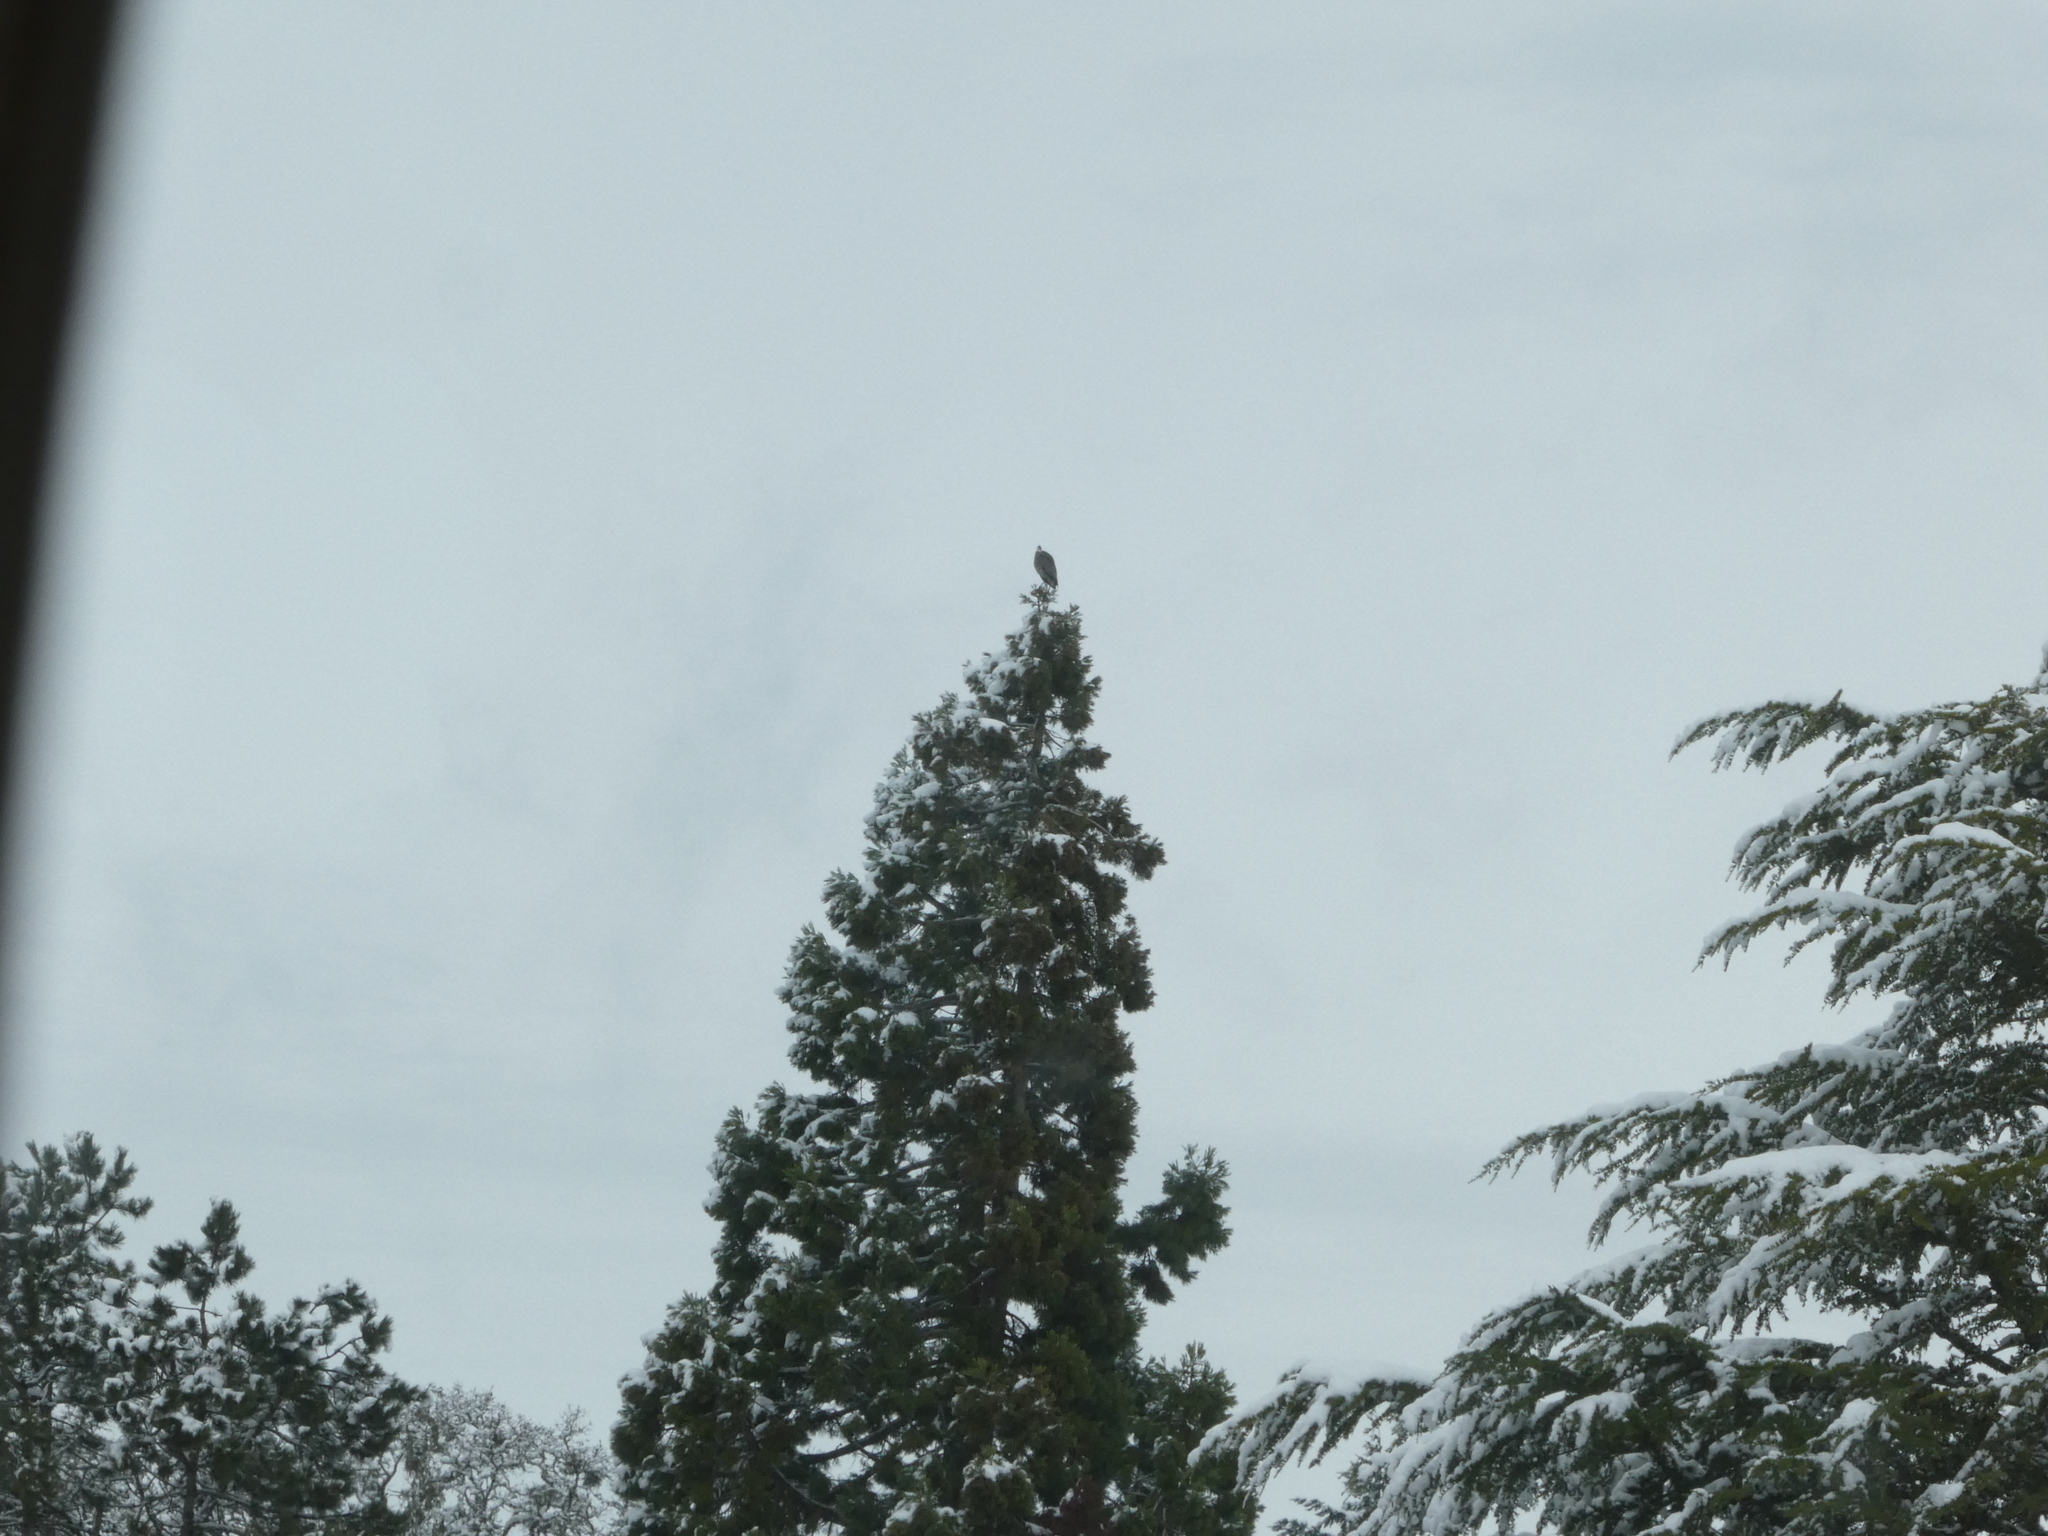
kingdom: Animalia
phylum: Chordata
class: Aves
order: Pelecaniformes
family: Ardeidae
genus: Ardea
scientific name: Ardea herodias
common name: Great blue heron
